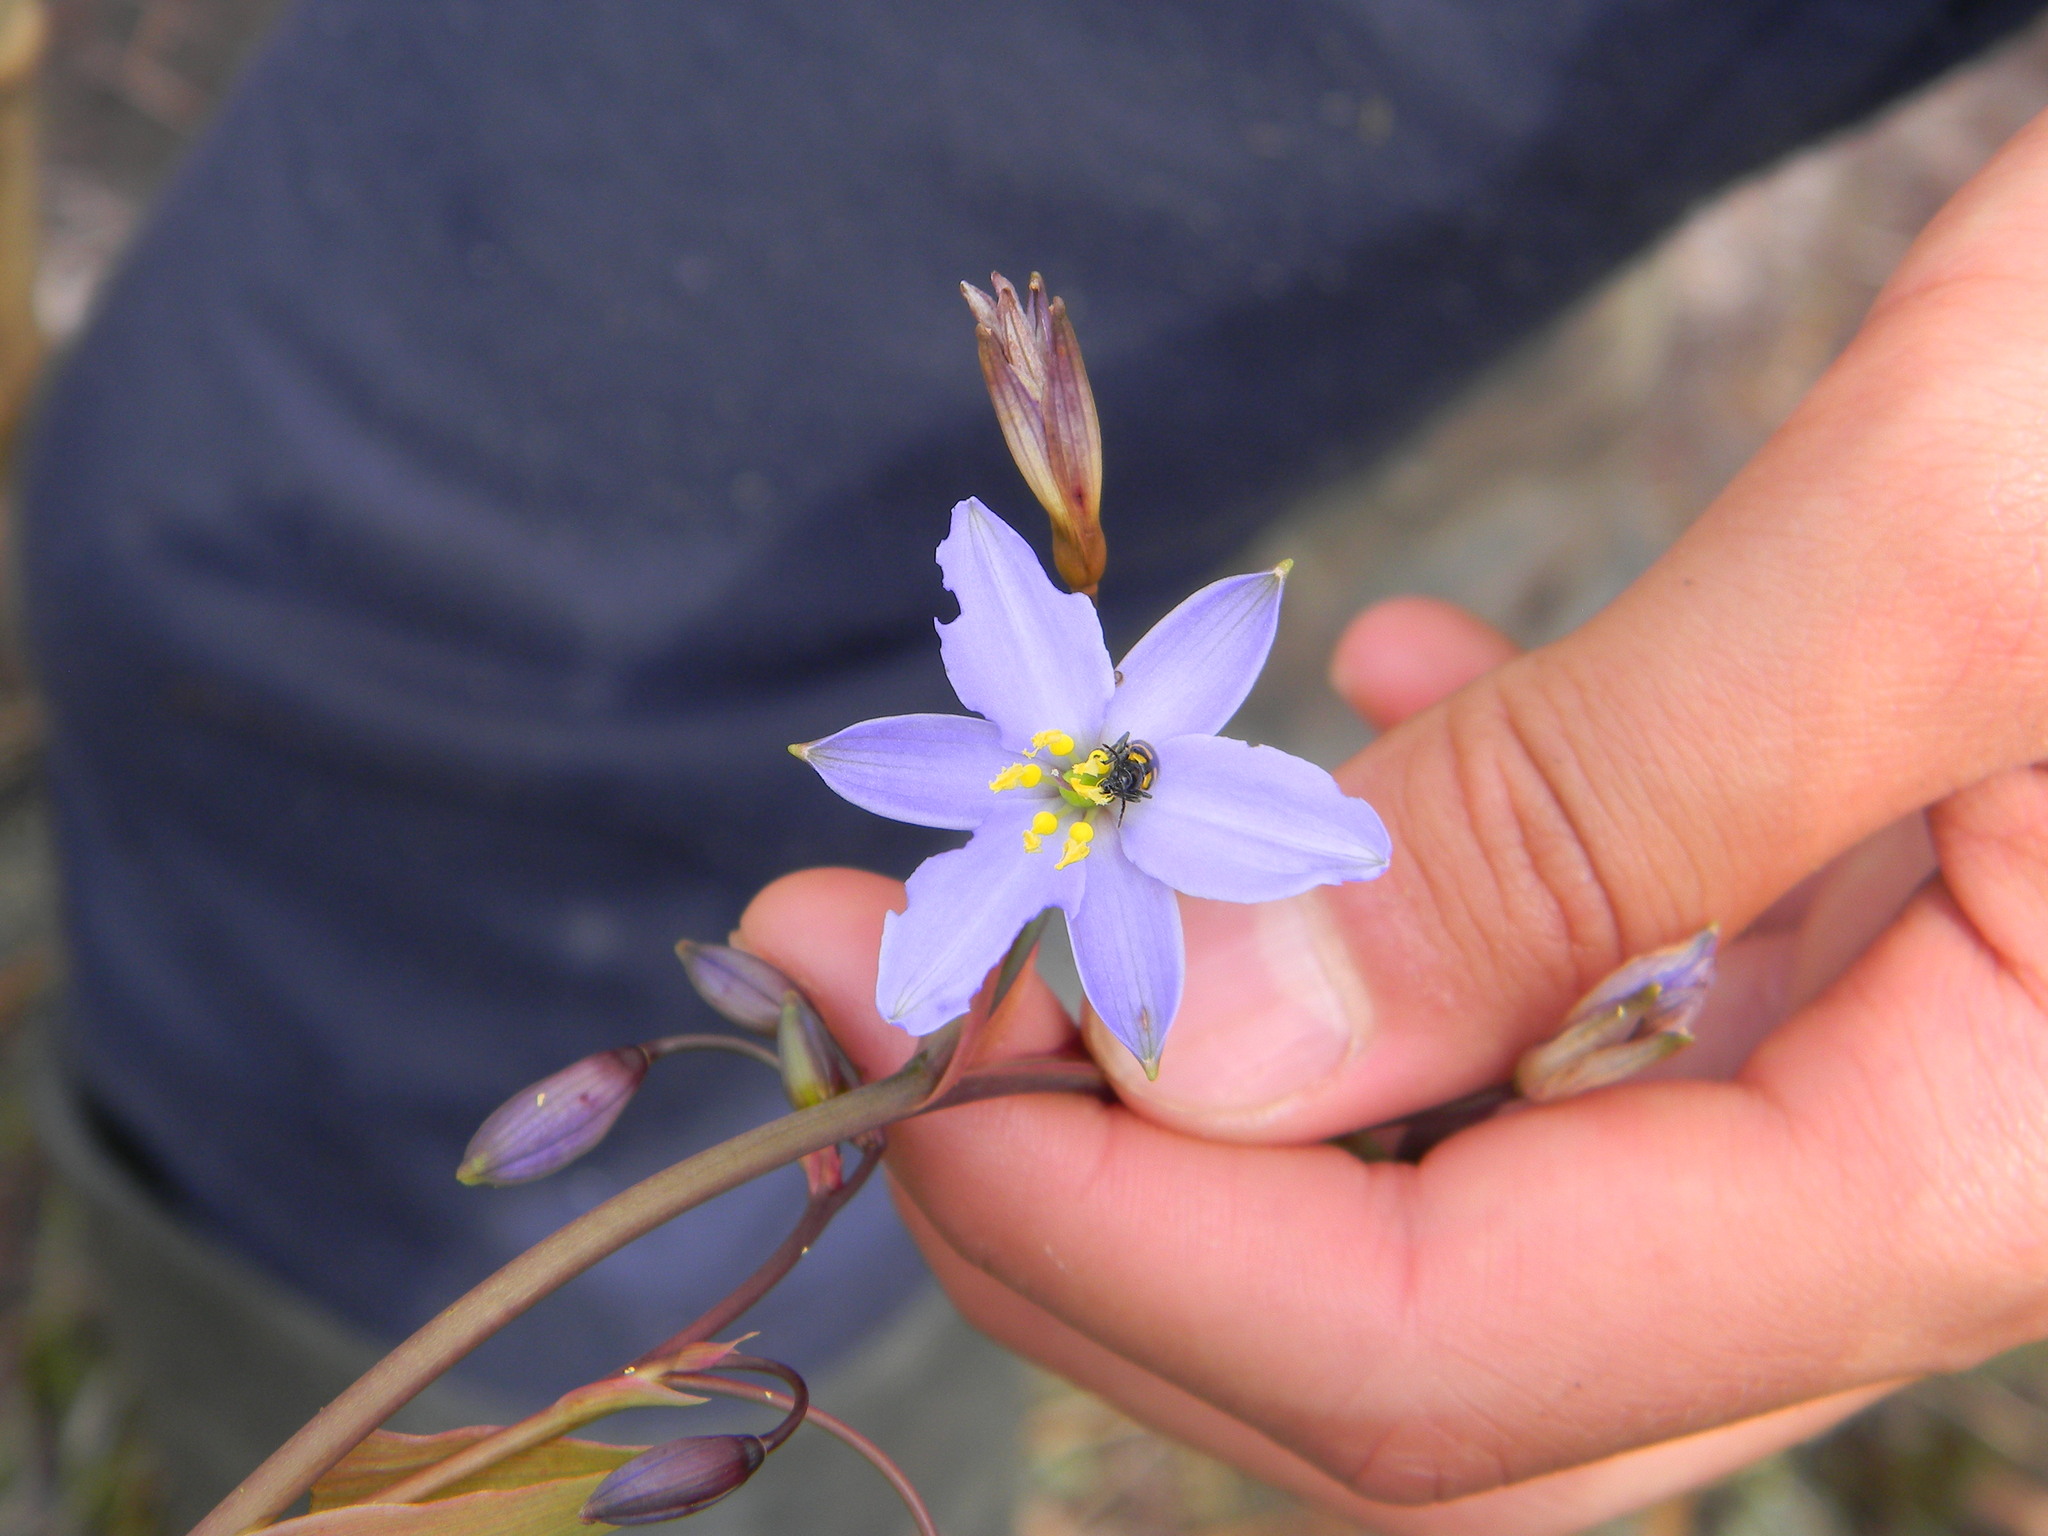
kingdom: Plantae
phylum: Tracheophyta
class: Liliopsida
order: Asparagales
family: Asphodelaceae
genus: Excremis
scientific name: Excremis coarctata
